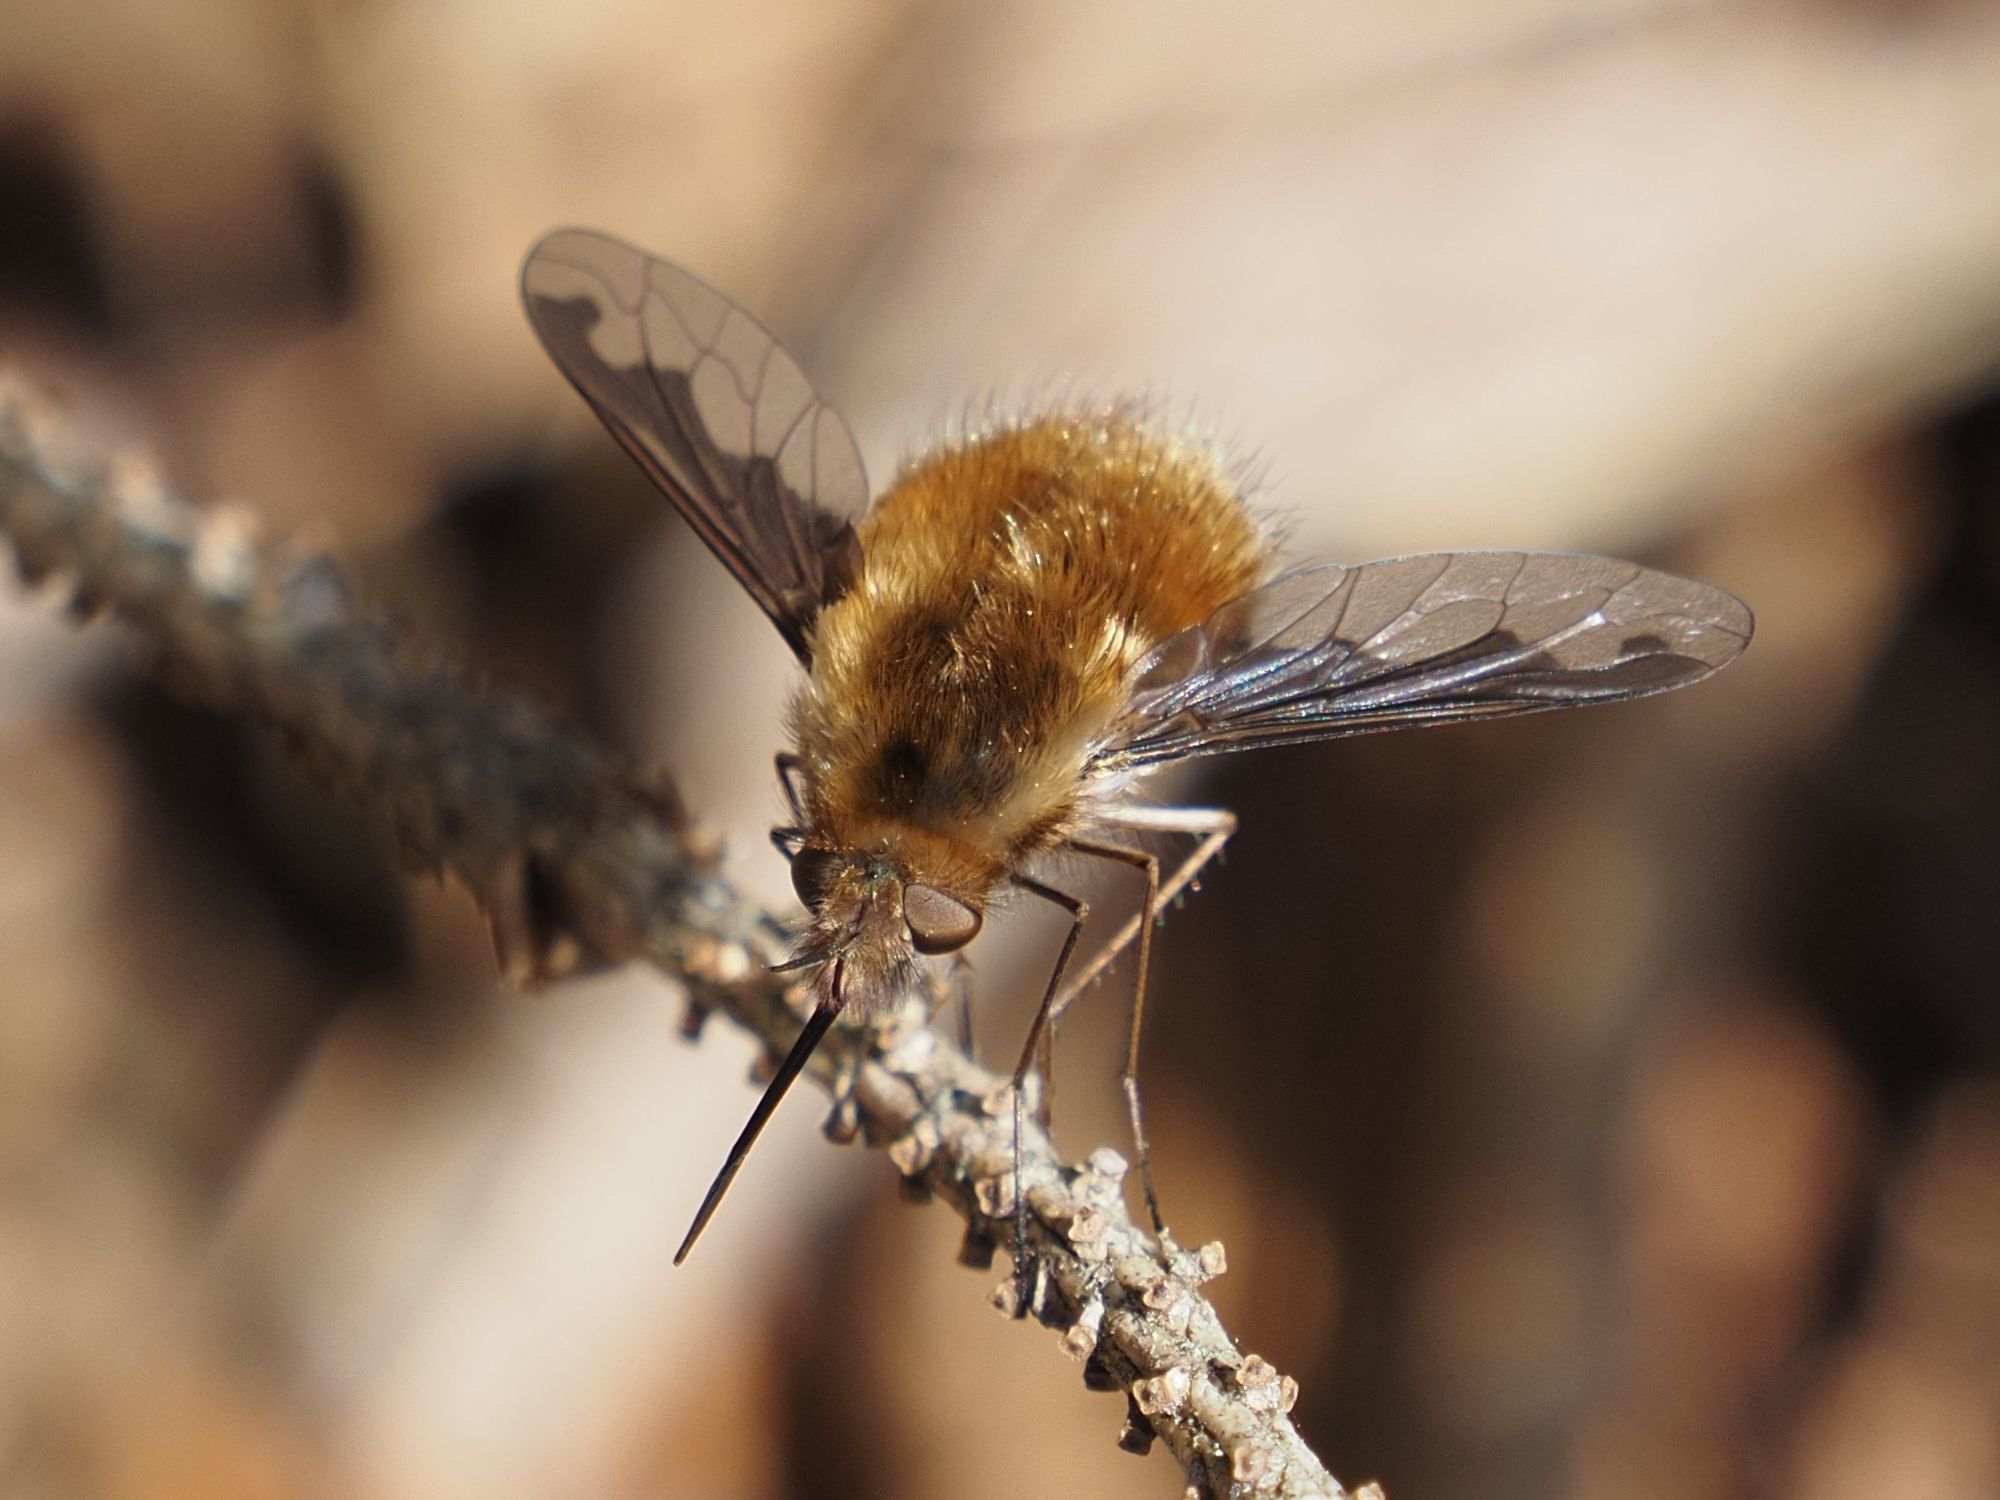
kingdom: Animalia
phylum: Arthropoda
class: Insecta
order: Diptera
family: Bombyliidae
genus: Bombylius
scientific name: Bombylius major
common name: Bee fly
